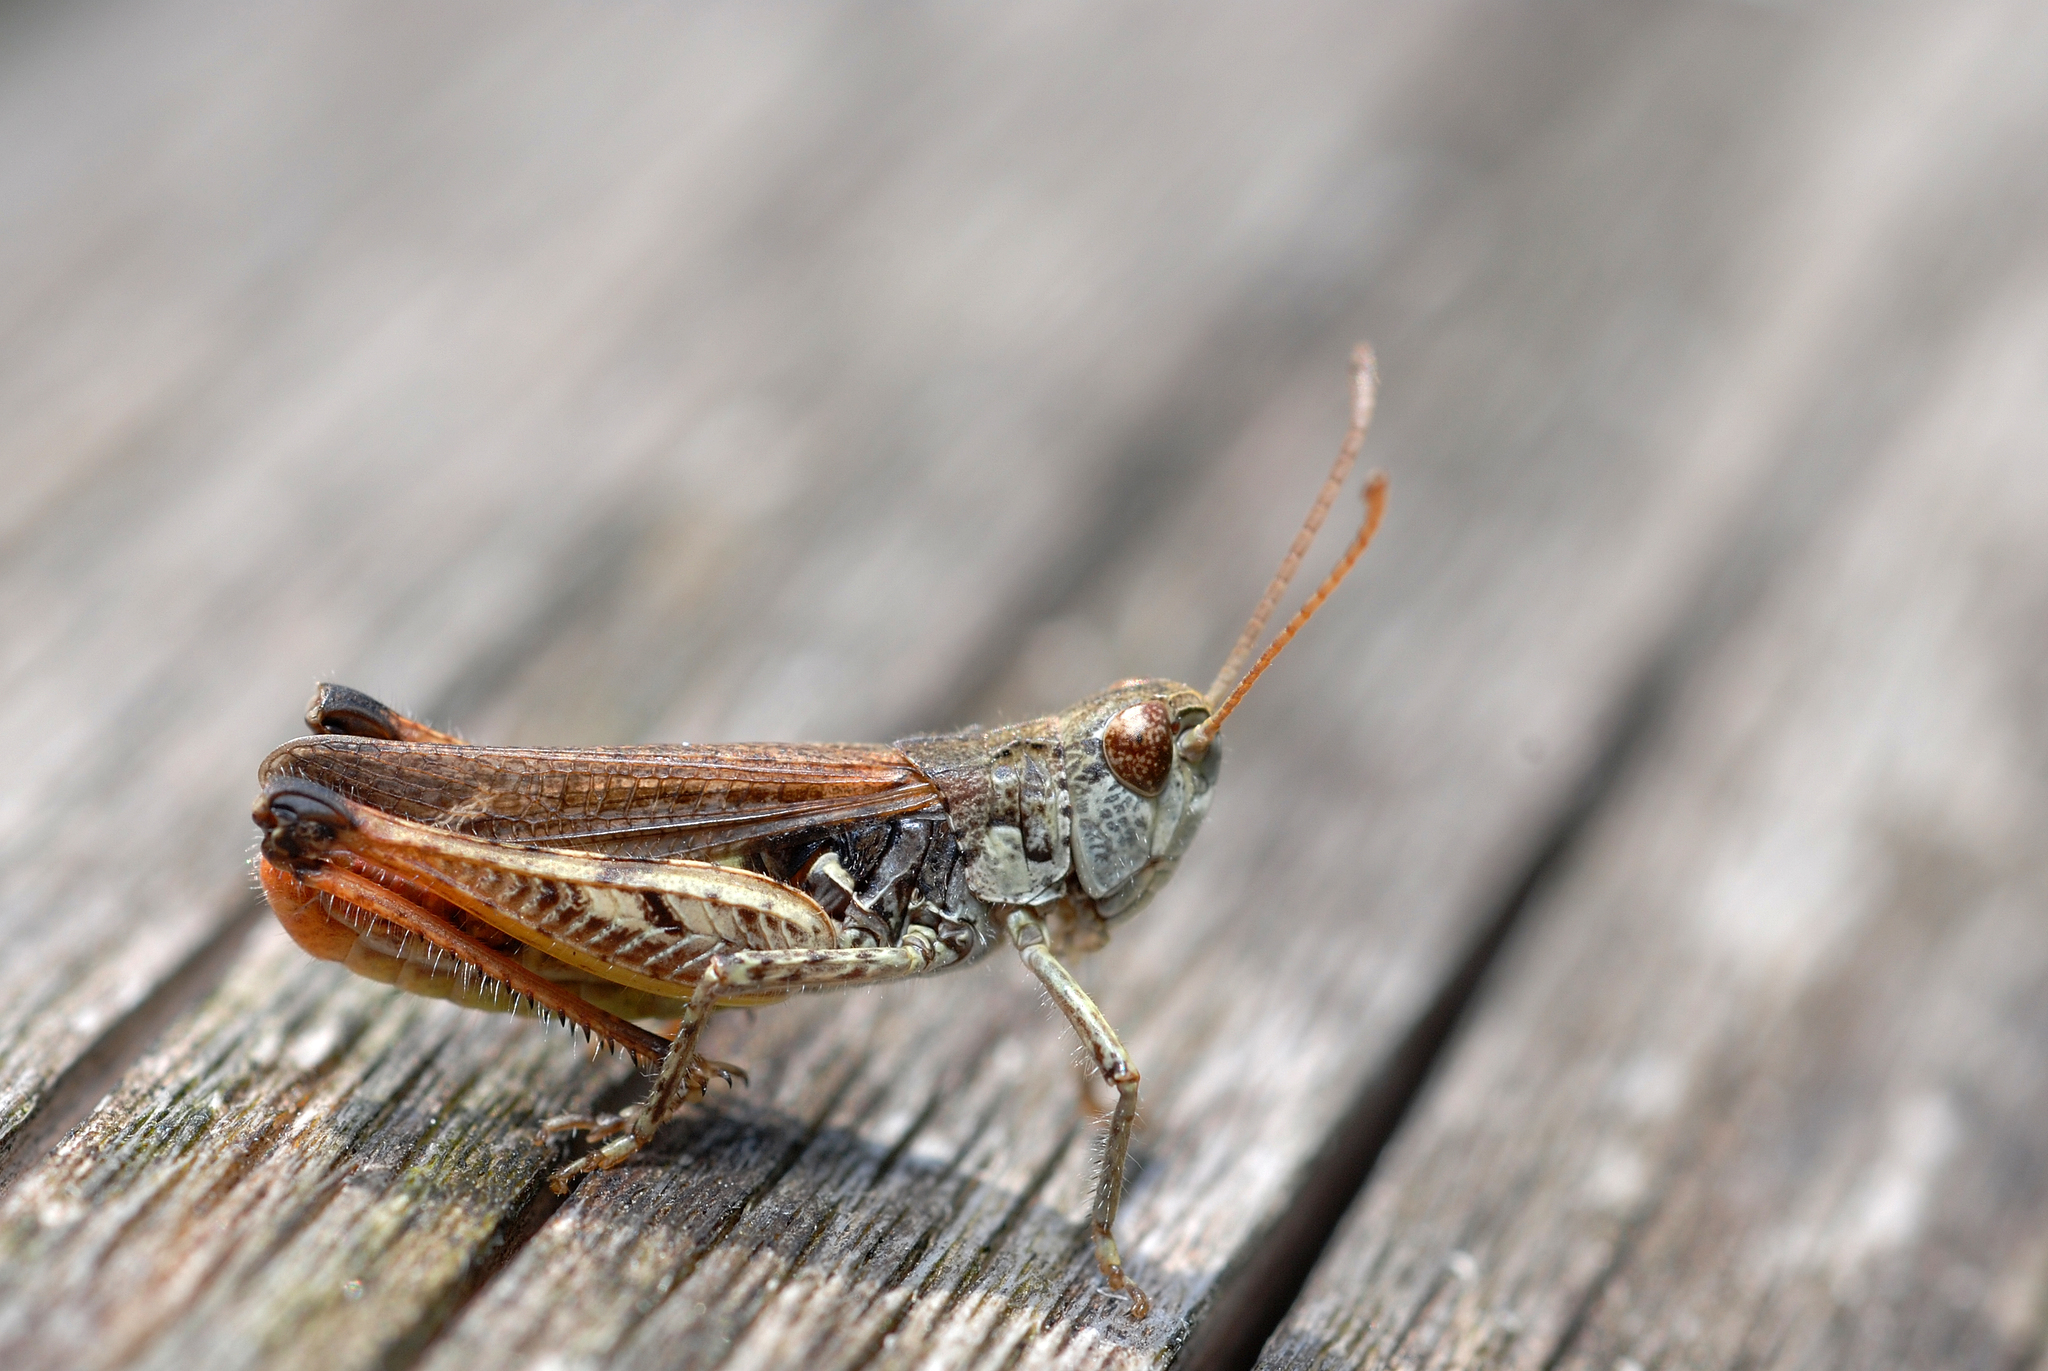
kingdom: Animalia
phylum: Arthropoda
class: Insecta
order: Orthoptera
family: Acrididae
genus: Myrmeleotettix
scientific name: Myrmeleotettix maculatus
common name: Mottled grasshopper
